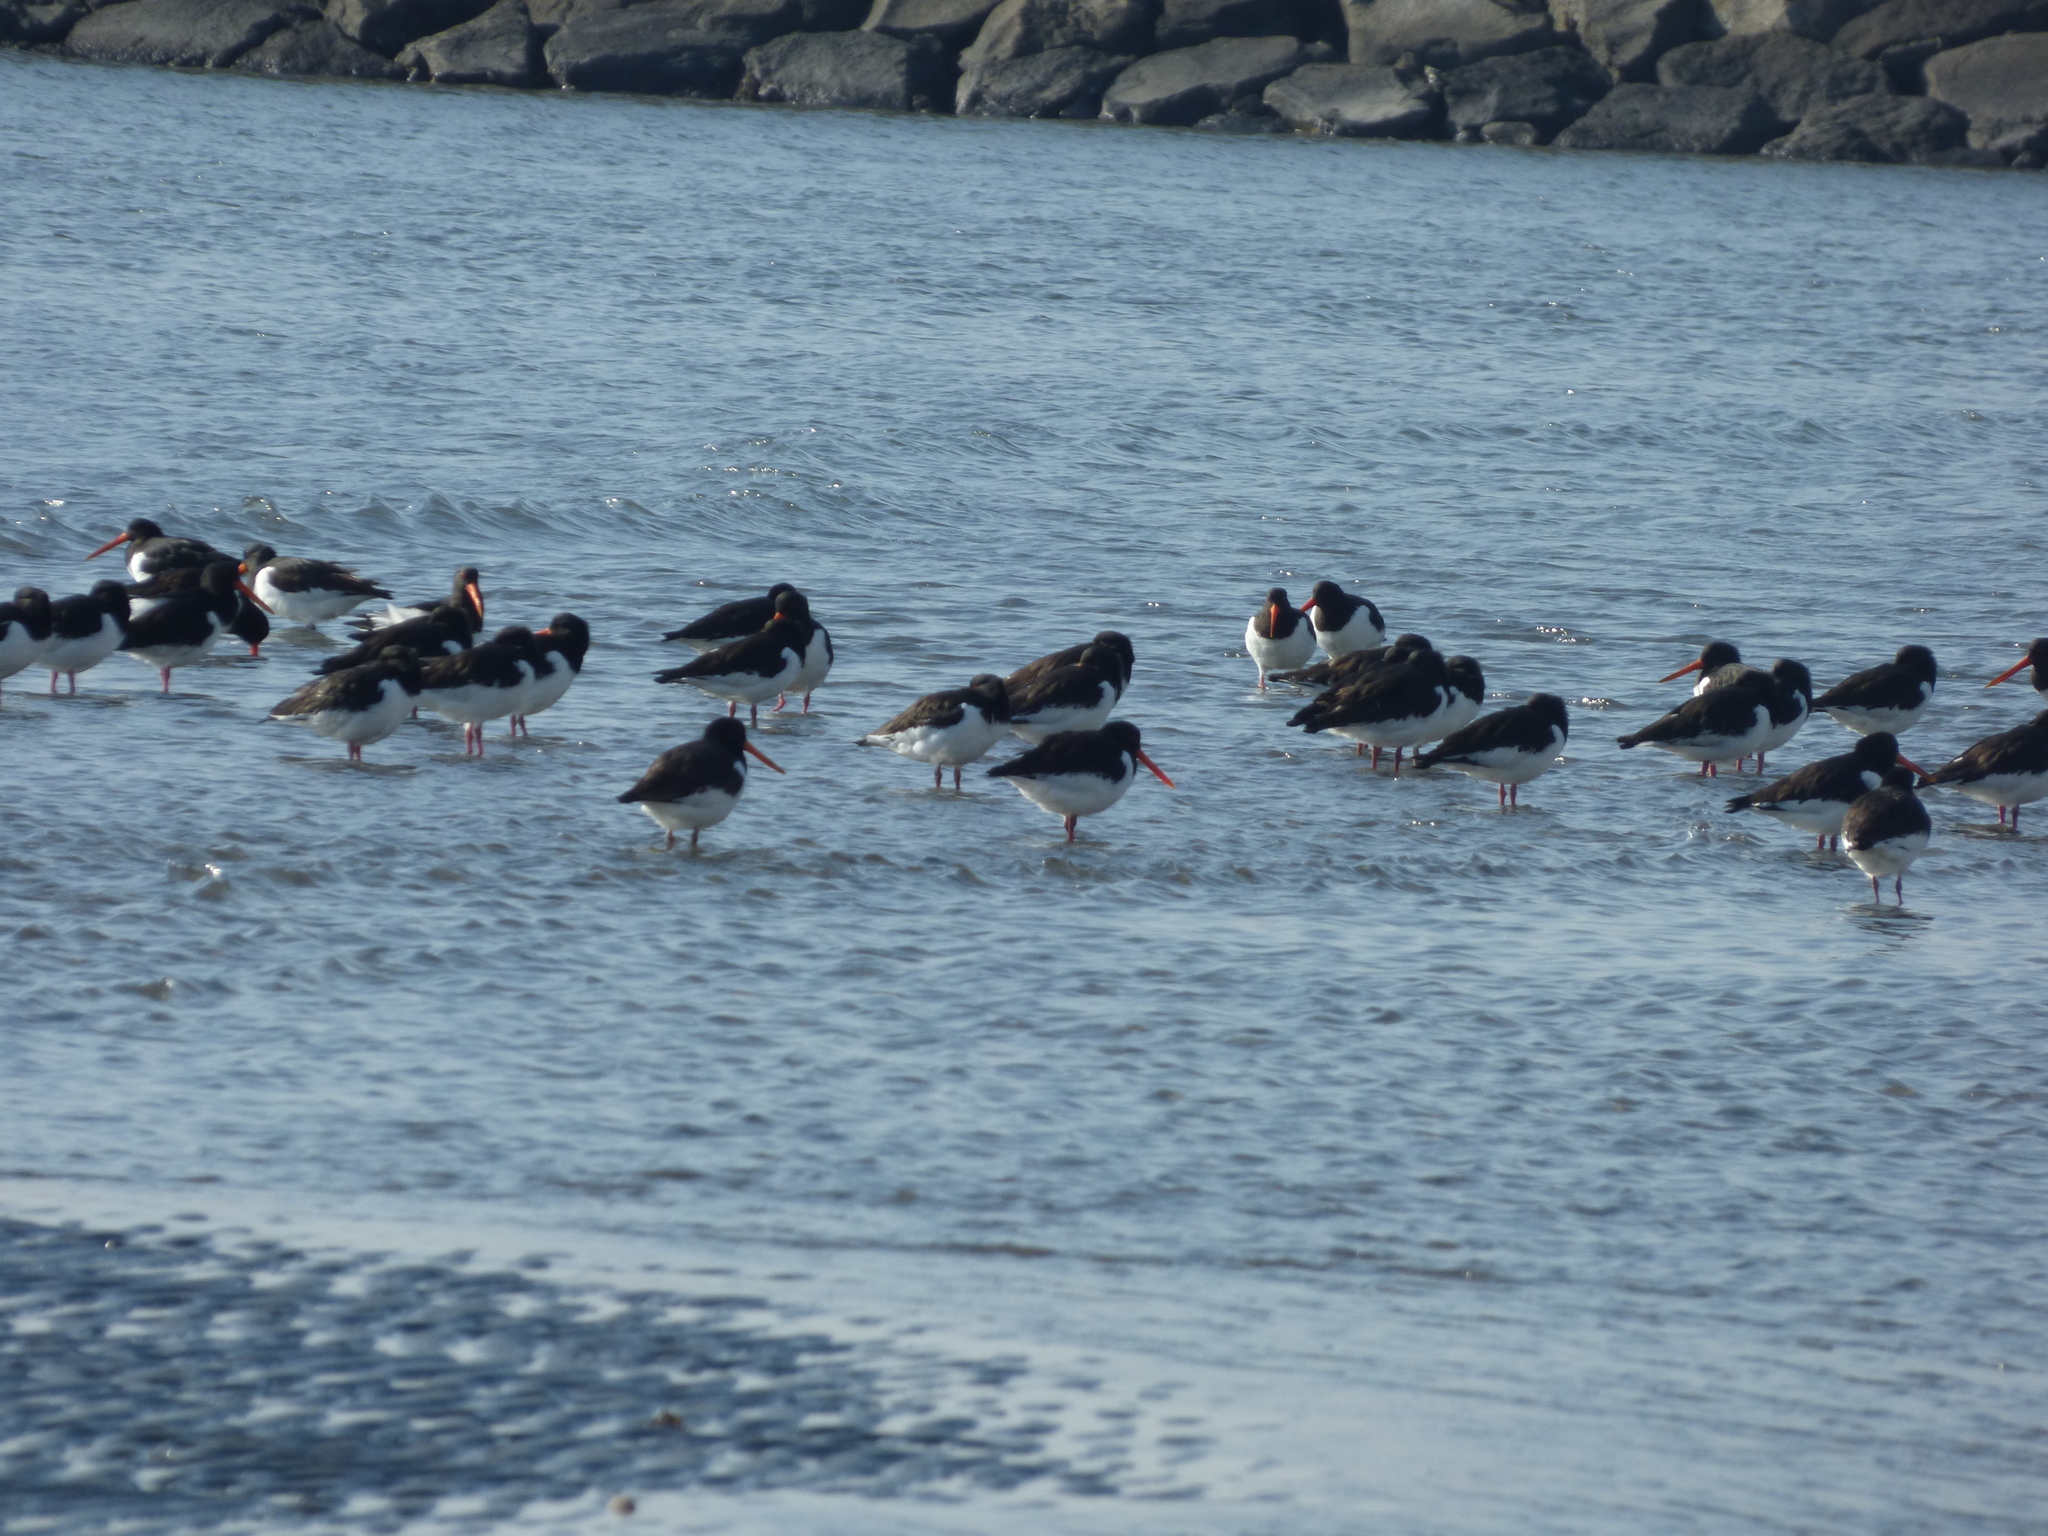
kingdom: Animalia
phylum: Chordata
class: Aves
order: Charadriiformes
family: Haematopodidae
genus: Haematopus
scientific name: Haematopus ostralegus
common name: Eurasian oystercatcher
